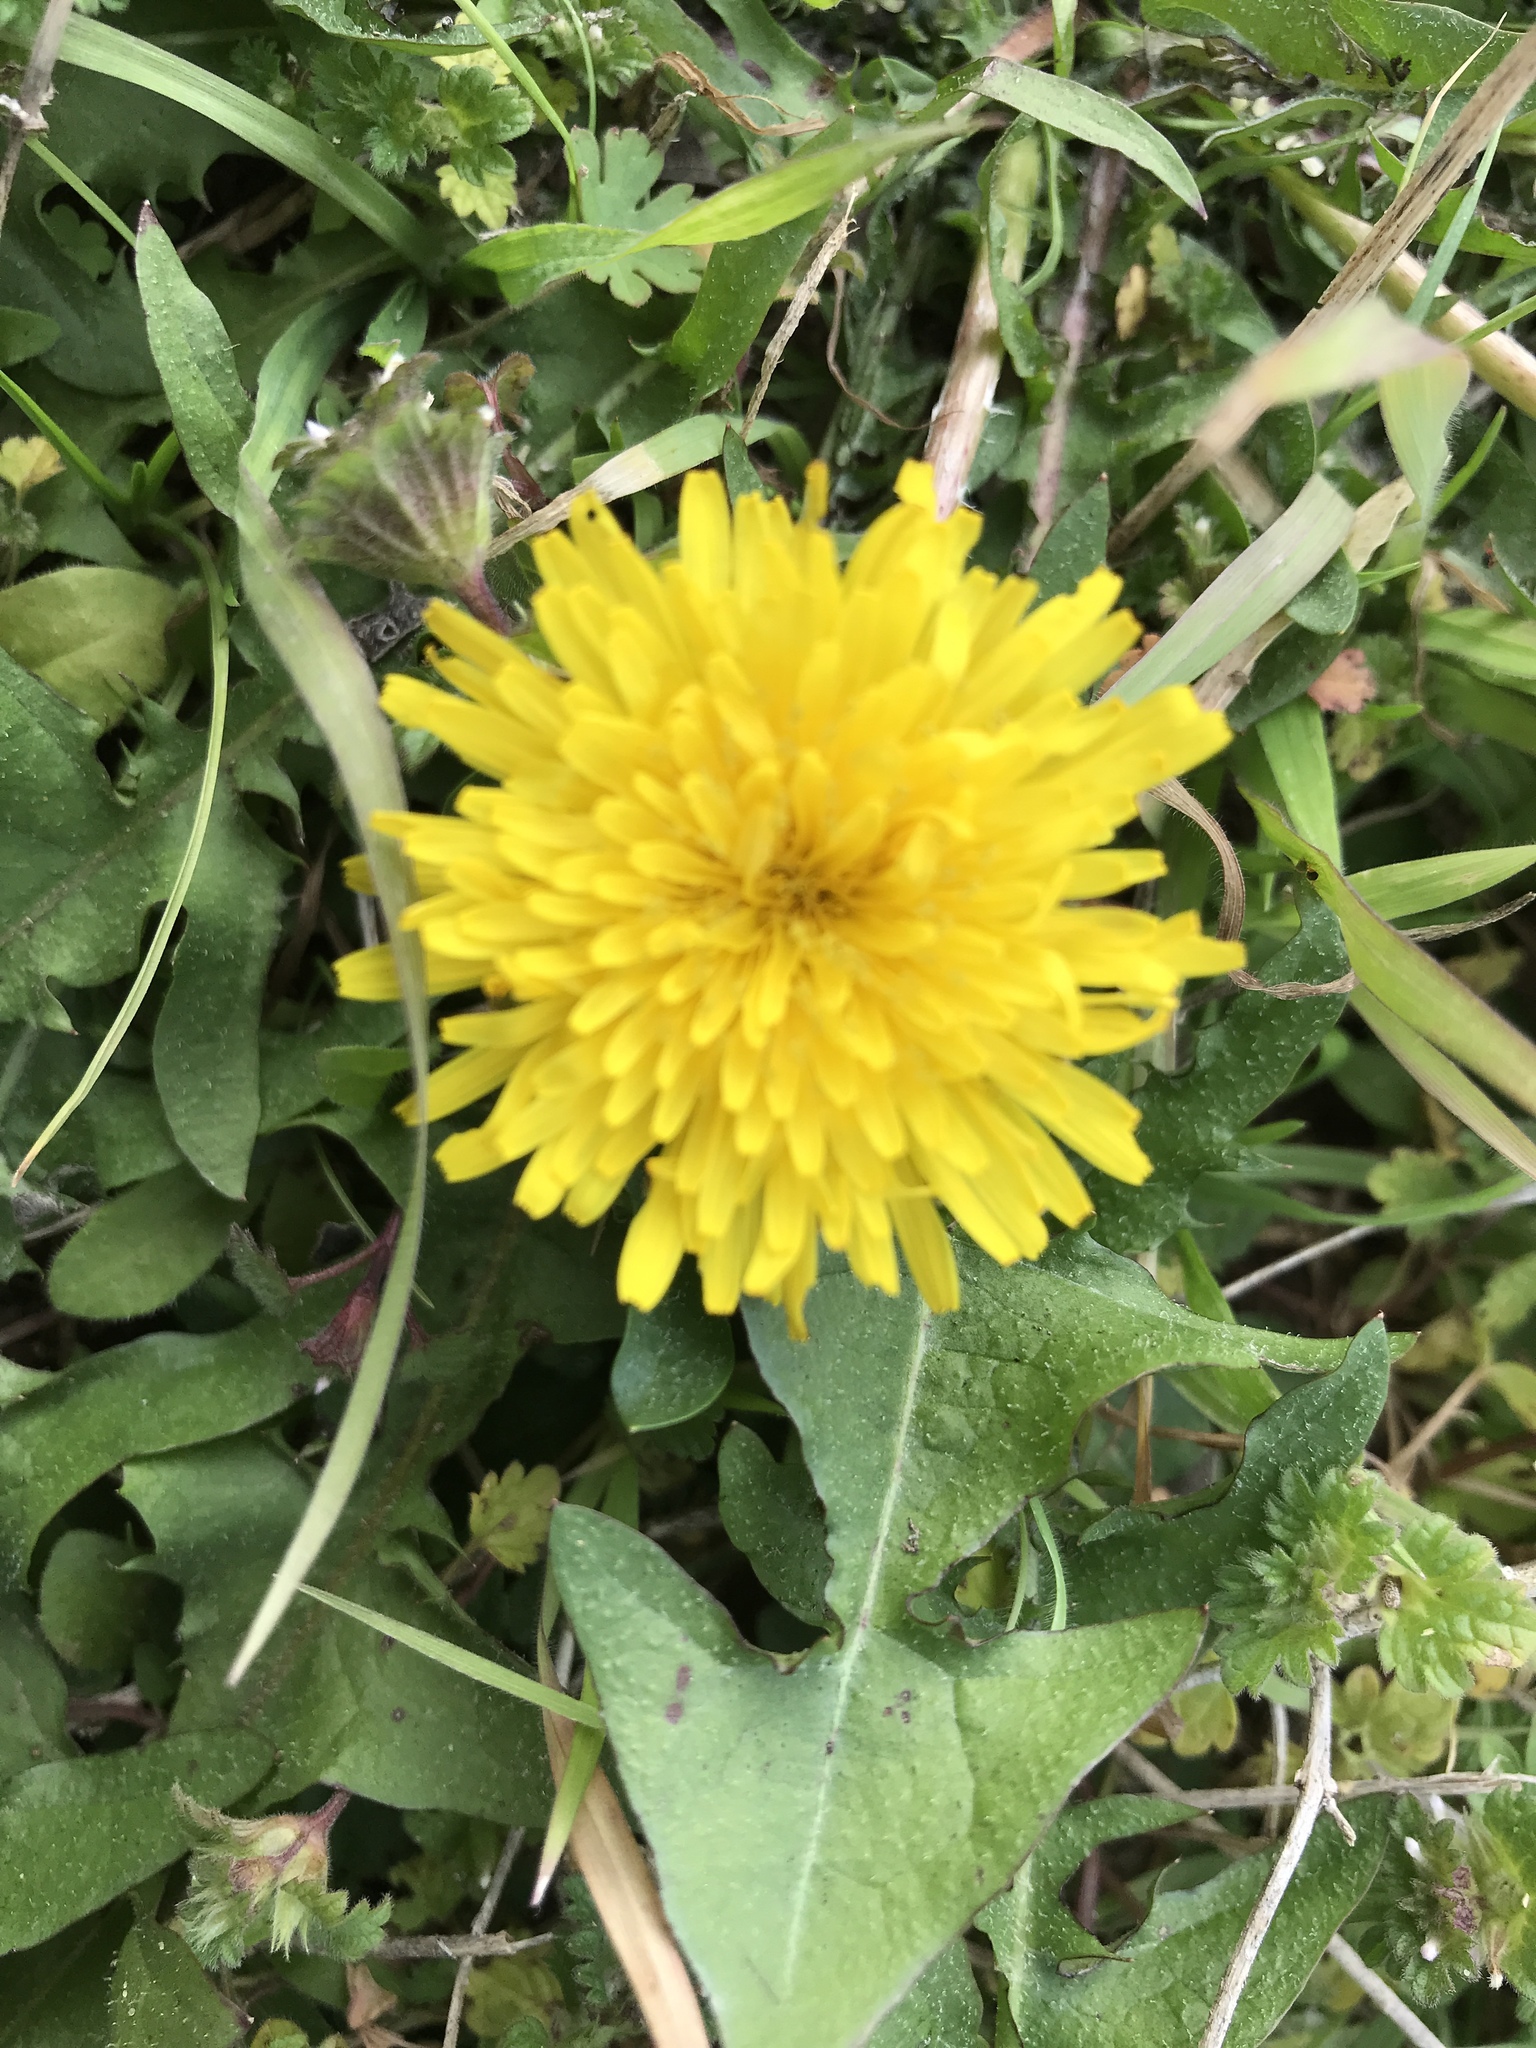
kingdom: Plantae
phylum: Tracheophyta
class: Magnoliopsida
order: Asterales
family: Asteraceae
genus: Taraxacum
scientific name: Taraxacum officinale
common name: Common dandelion
